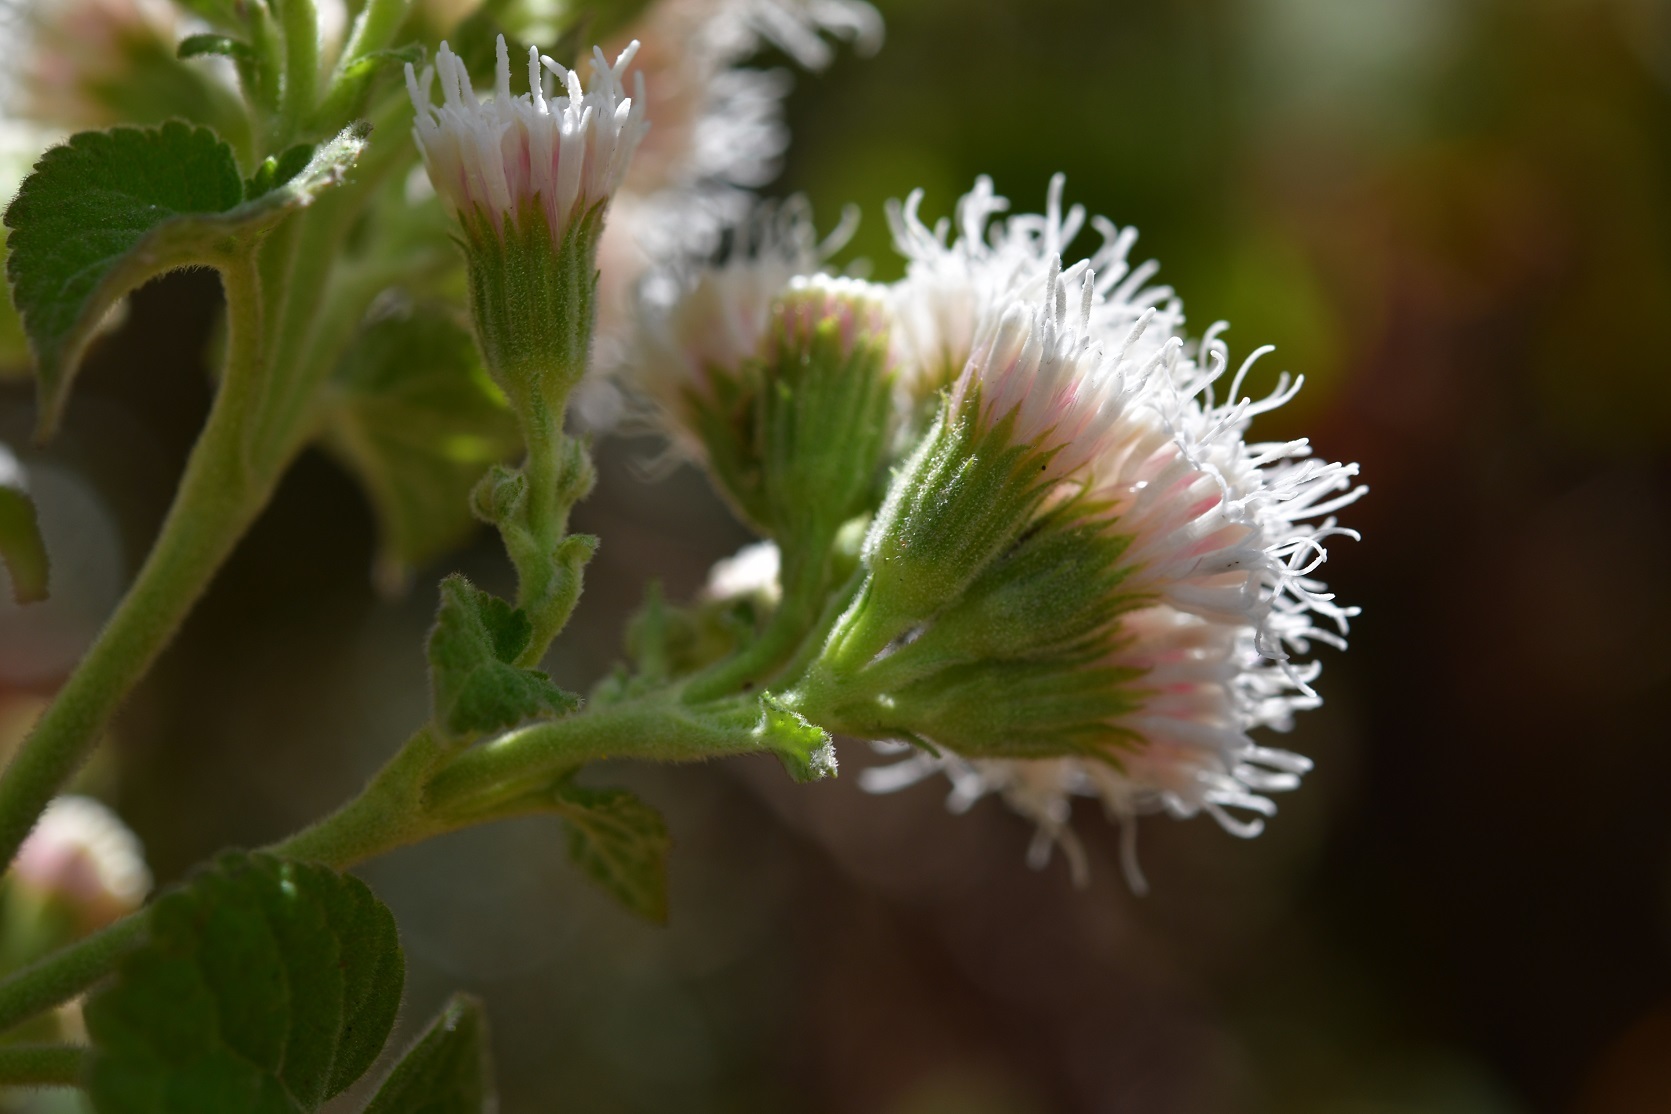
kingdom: Plantae
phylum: Tracheophyta
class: Magnoliopsida
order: Asterales
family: Asteraceae
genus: Ageratina
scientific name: Ageratina petiolaris
